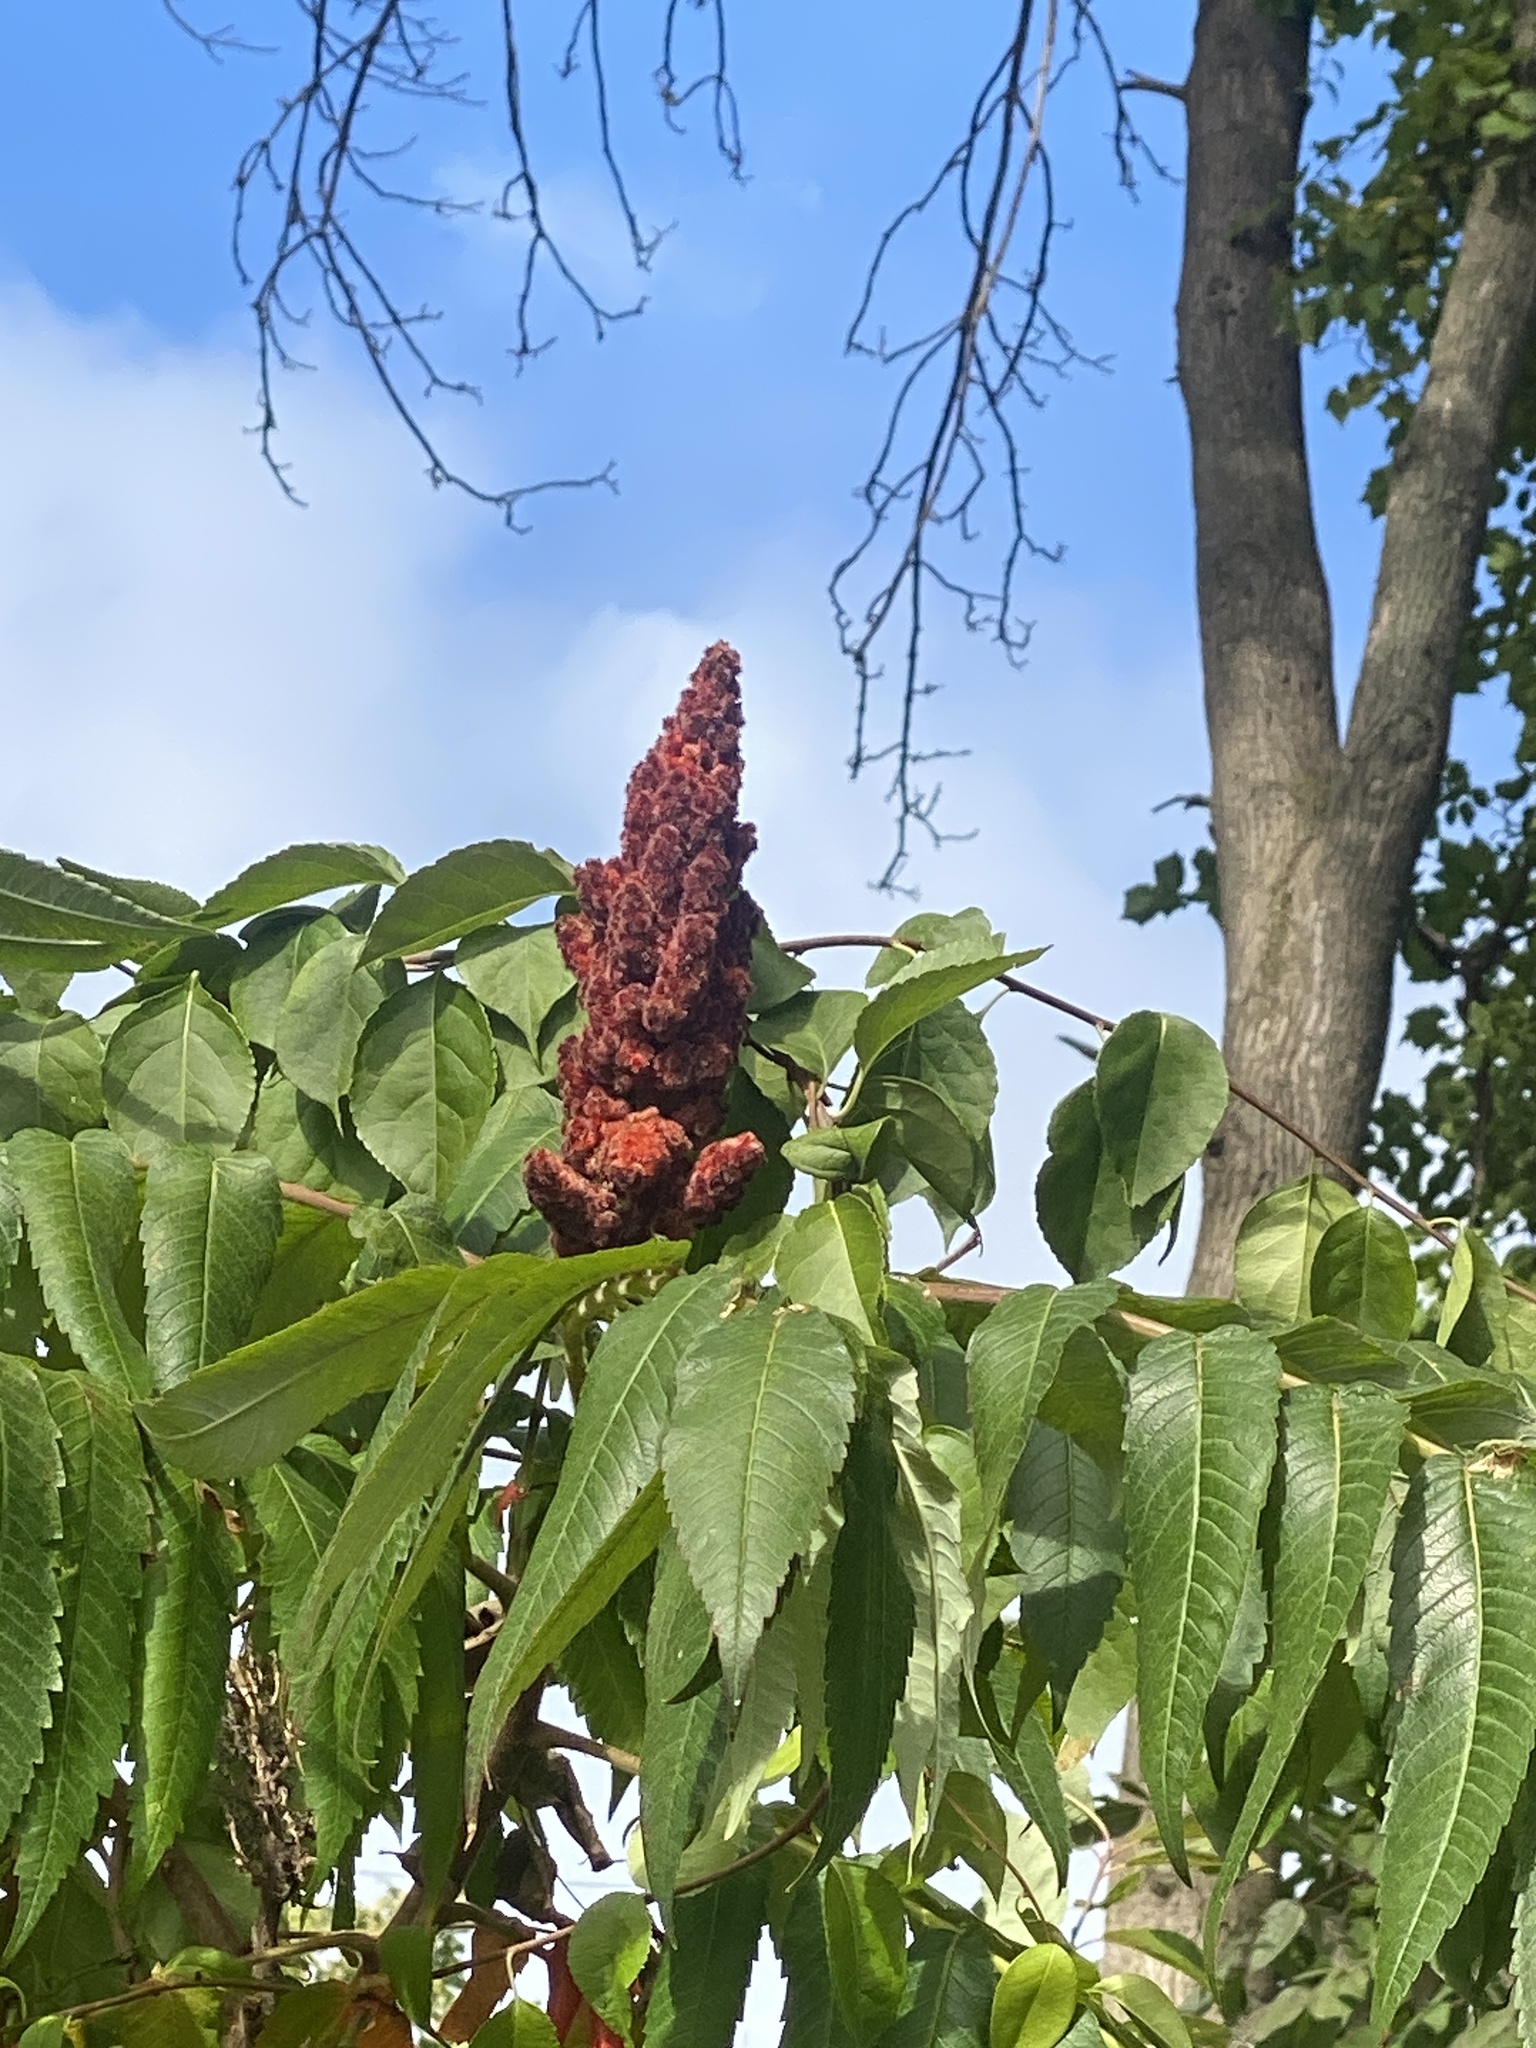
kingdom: Plantae
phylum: Tracheophyta
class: Magnoliopsida
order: Sapindales
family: Anacardiaceae
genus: Rhus
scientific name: Rhus typhina
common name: Staghorn sumac
